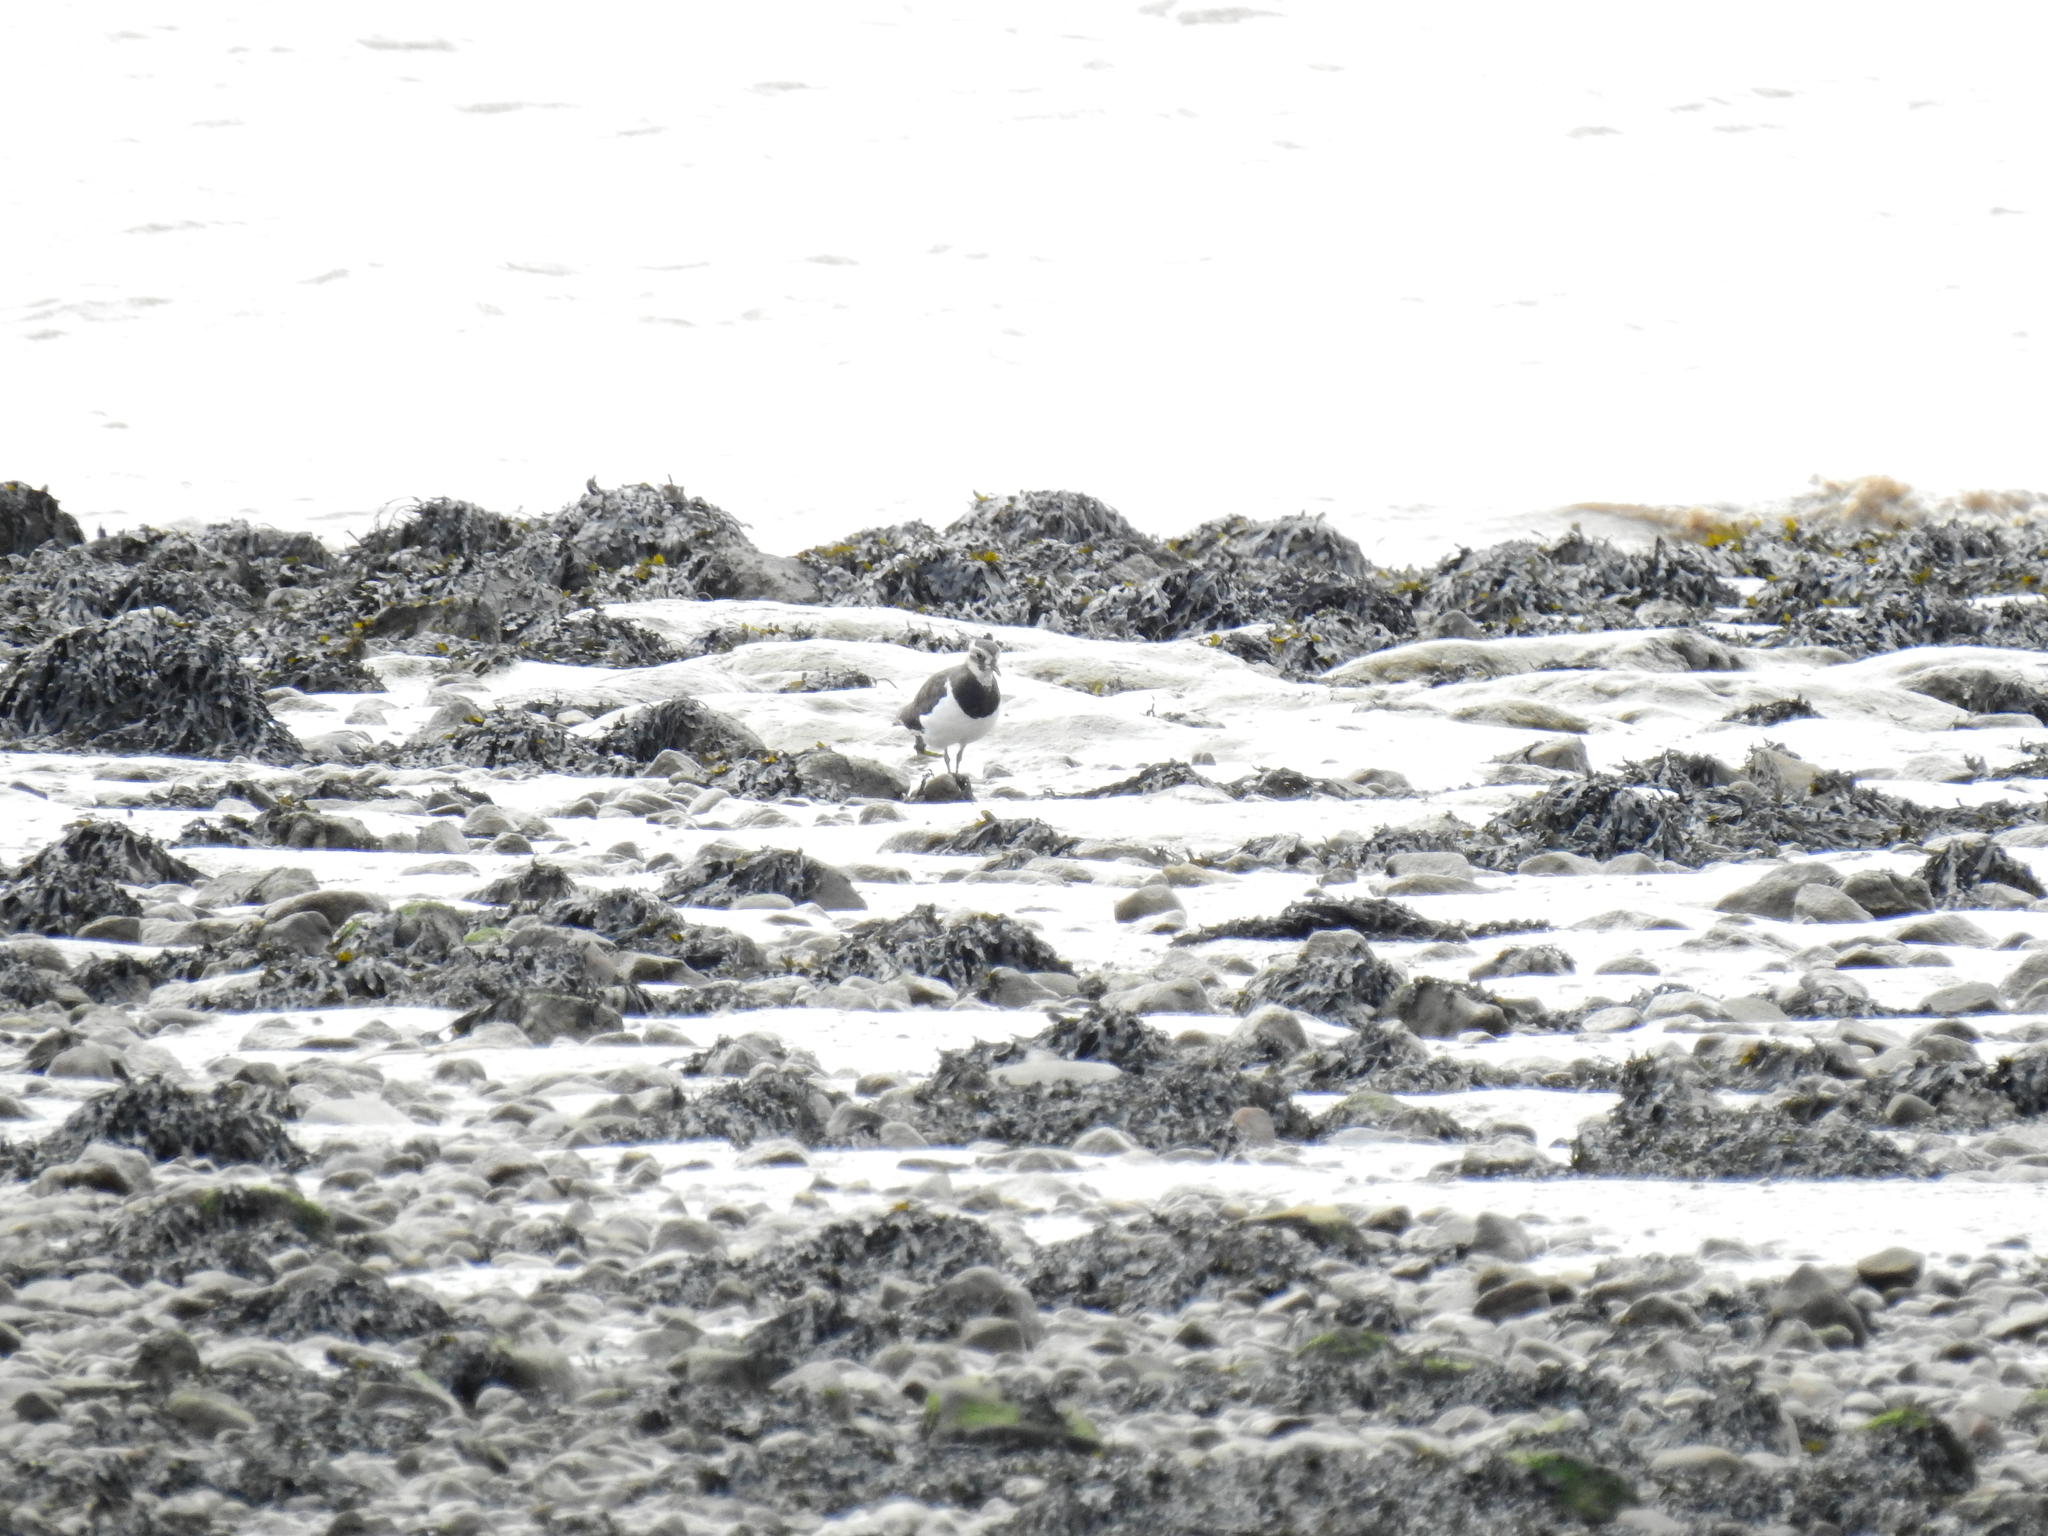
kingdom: Animalia
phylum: Chordata
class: Aves
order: Charadriiformes
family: Charadriidae
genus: Vanellus
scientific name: Vanellus vanellus
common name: Northern lapwing
